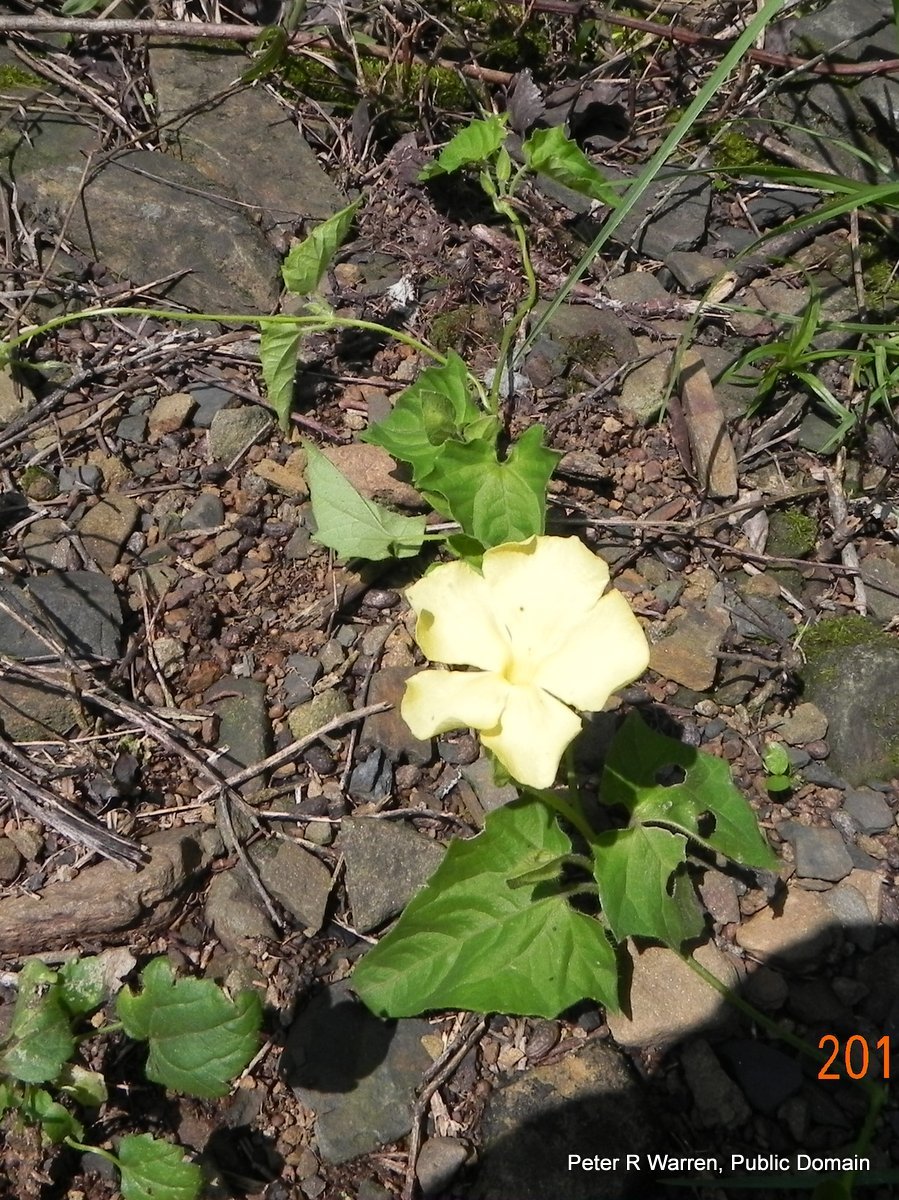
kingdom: Plantae
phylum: Tracheophyta
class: Magnoliopsida
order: Lamiales
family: Acanthaceae
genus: Thunbergia
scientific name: Thunbergia neglecta
